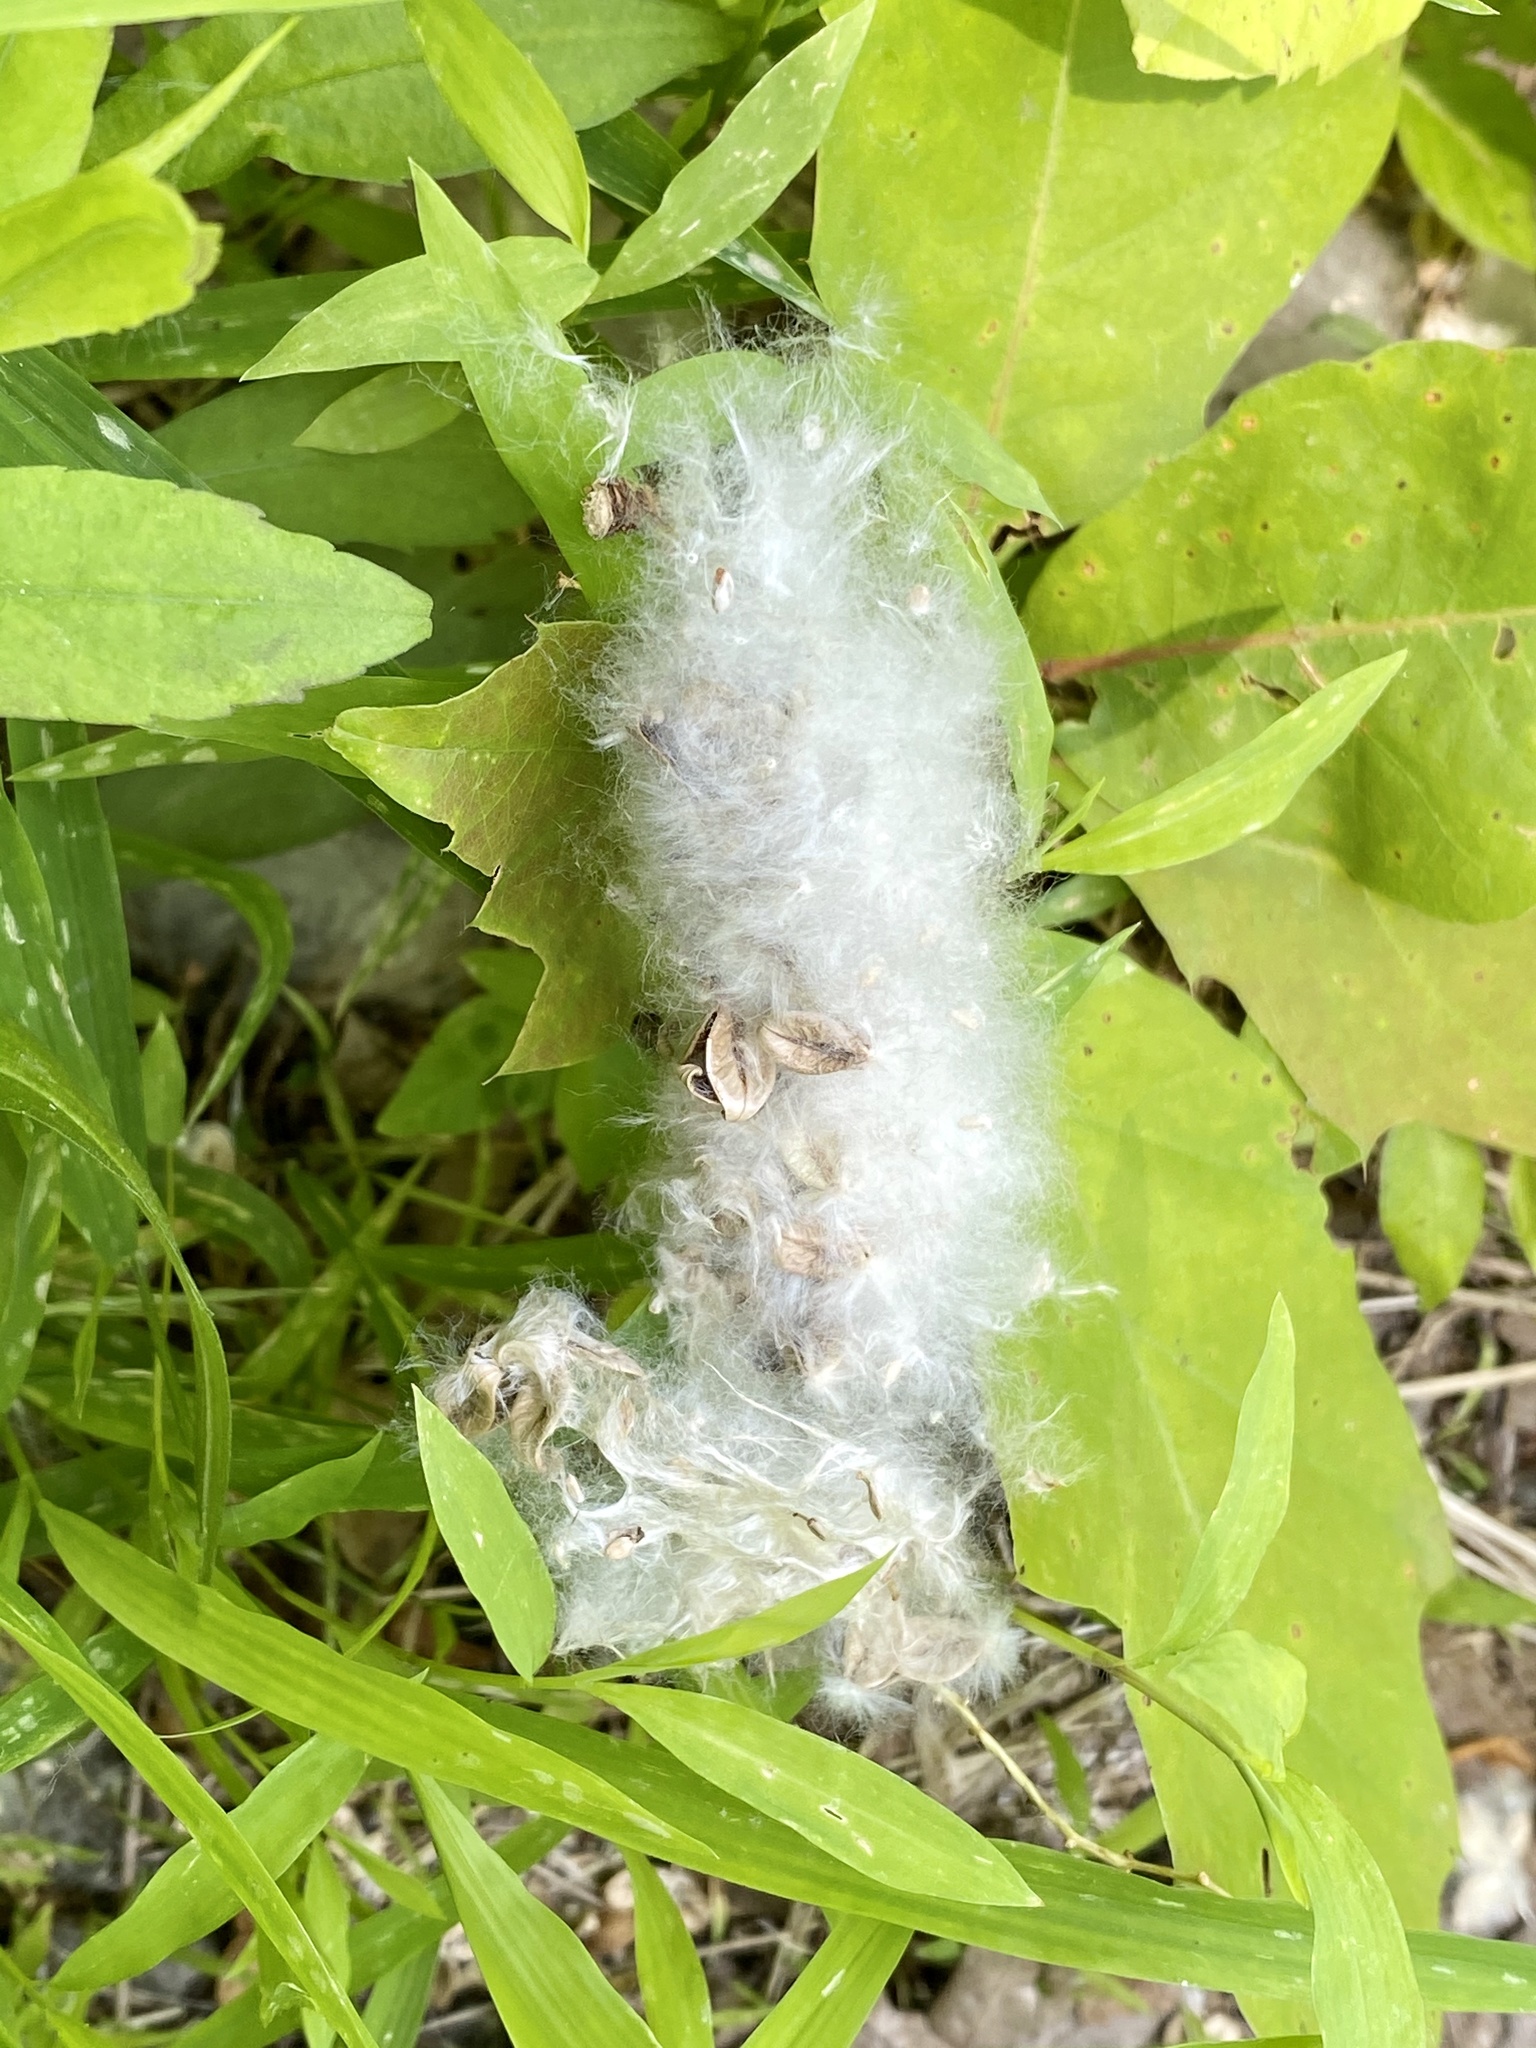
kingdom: Plantae
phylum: Tracheophyta
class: Magnoliopsida
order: Malpighiales
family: Salicaceae
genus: Populus
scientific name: Populus deltoides
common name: Eastern cottonwood
